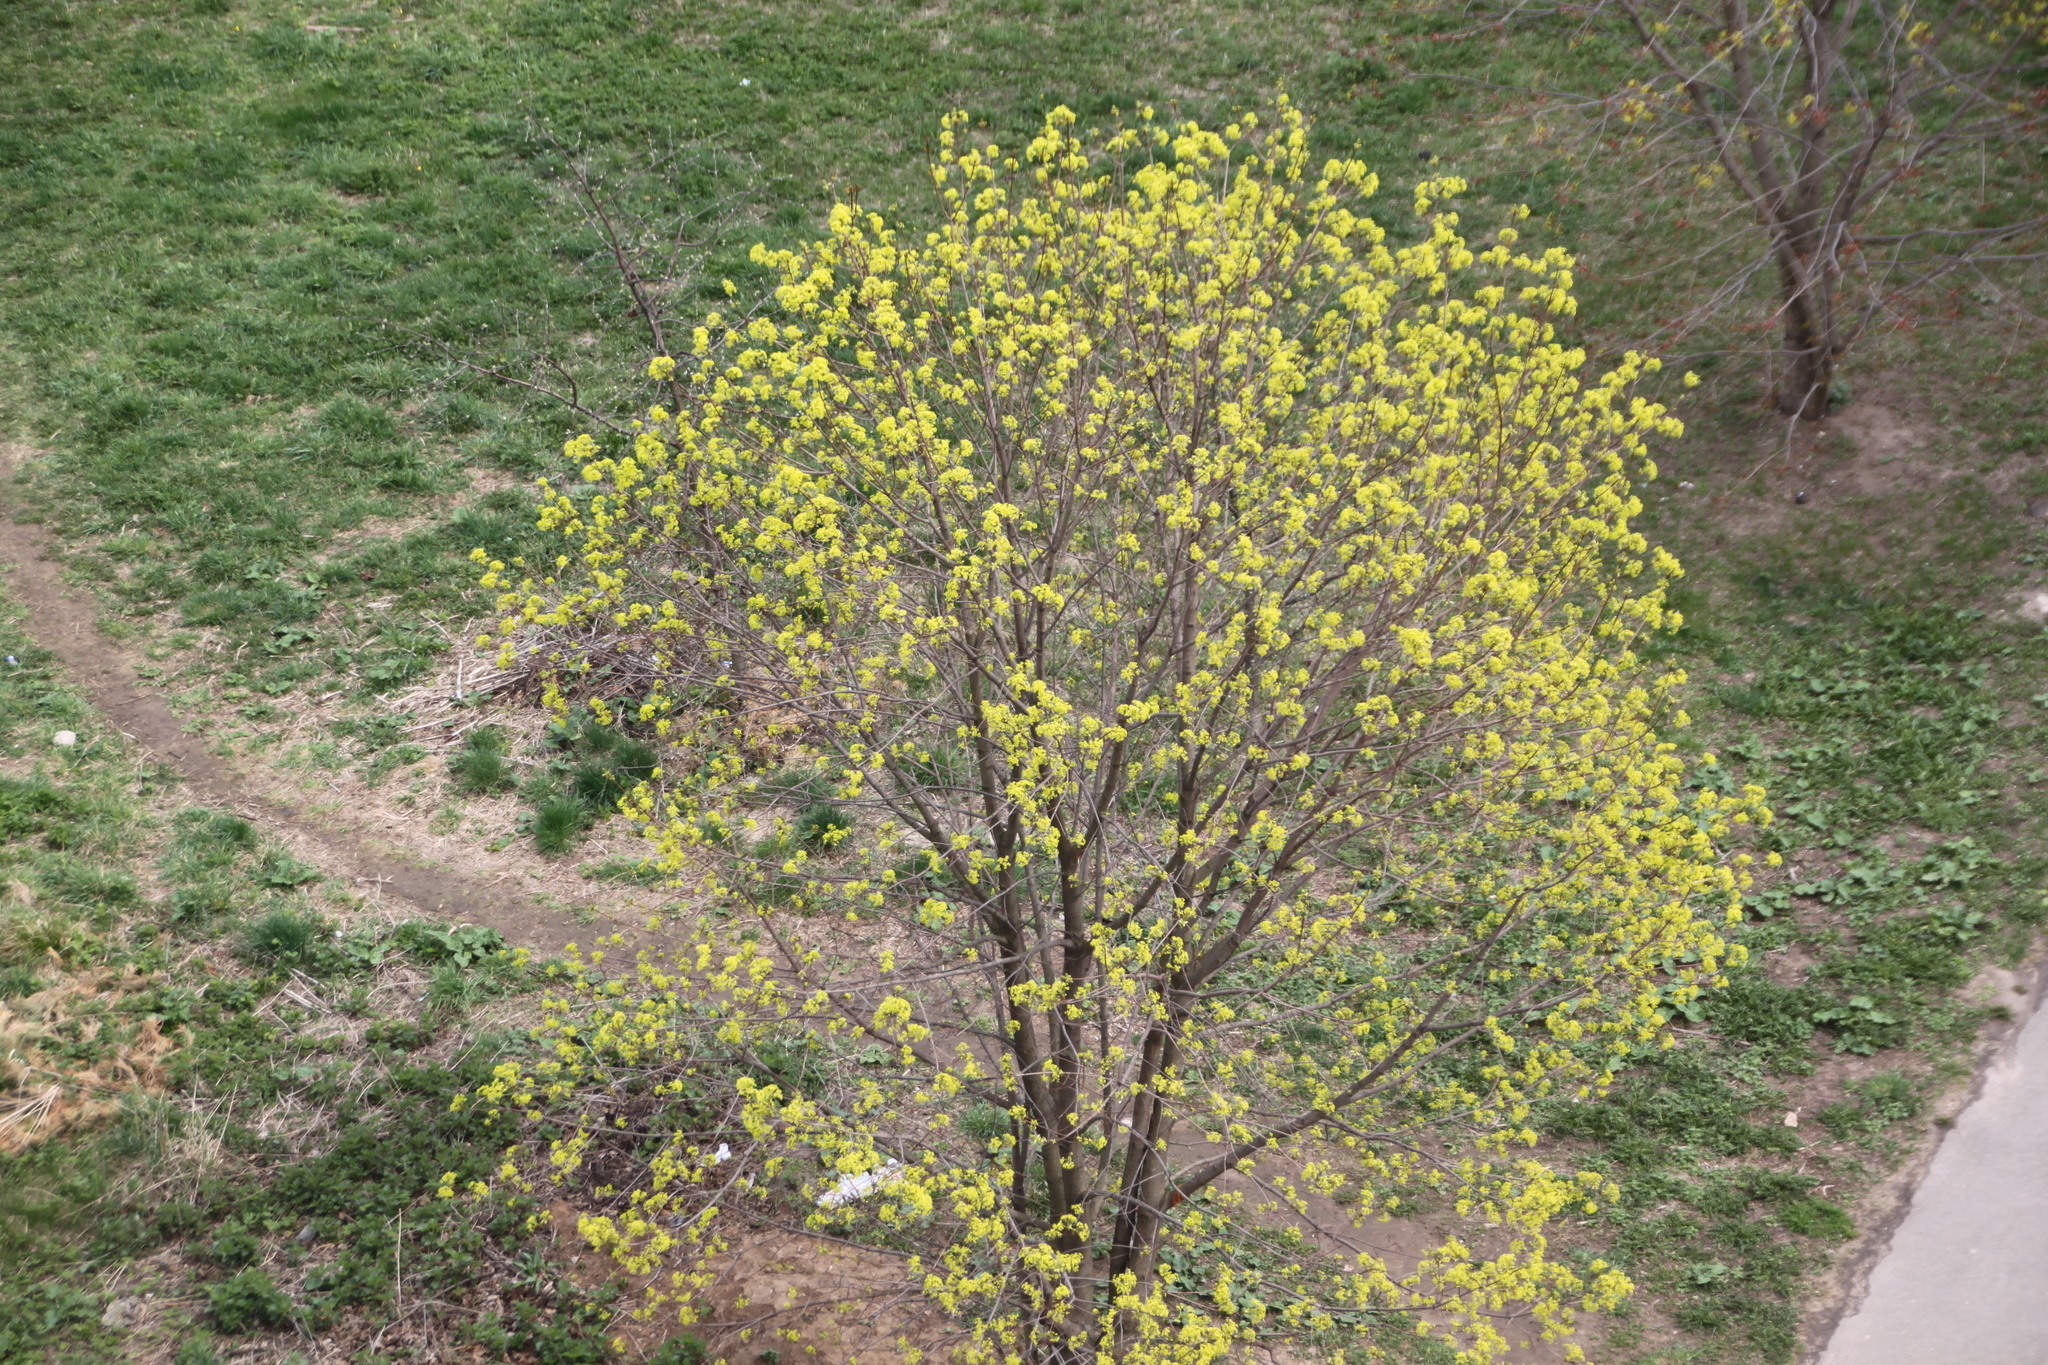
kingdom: Plantae
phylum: Tracheophyta
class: Magnoliopsida
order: Sapindales
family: Sapindaceae
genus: Acer
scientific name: Acer platanoides
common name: Norway maple
